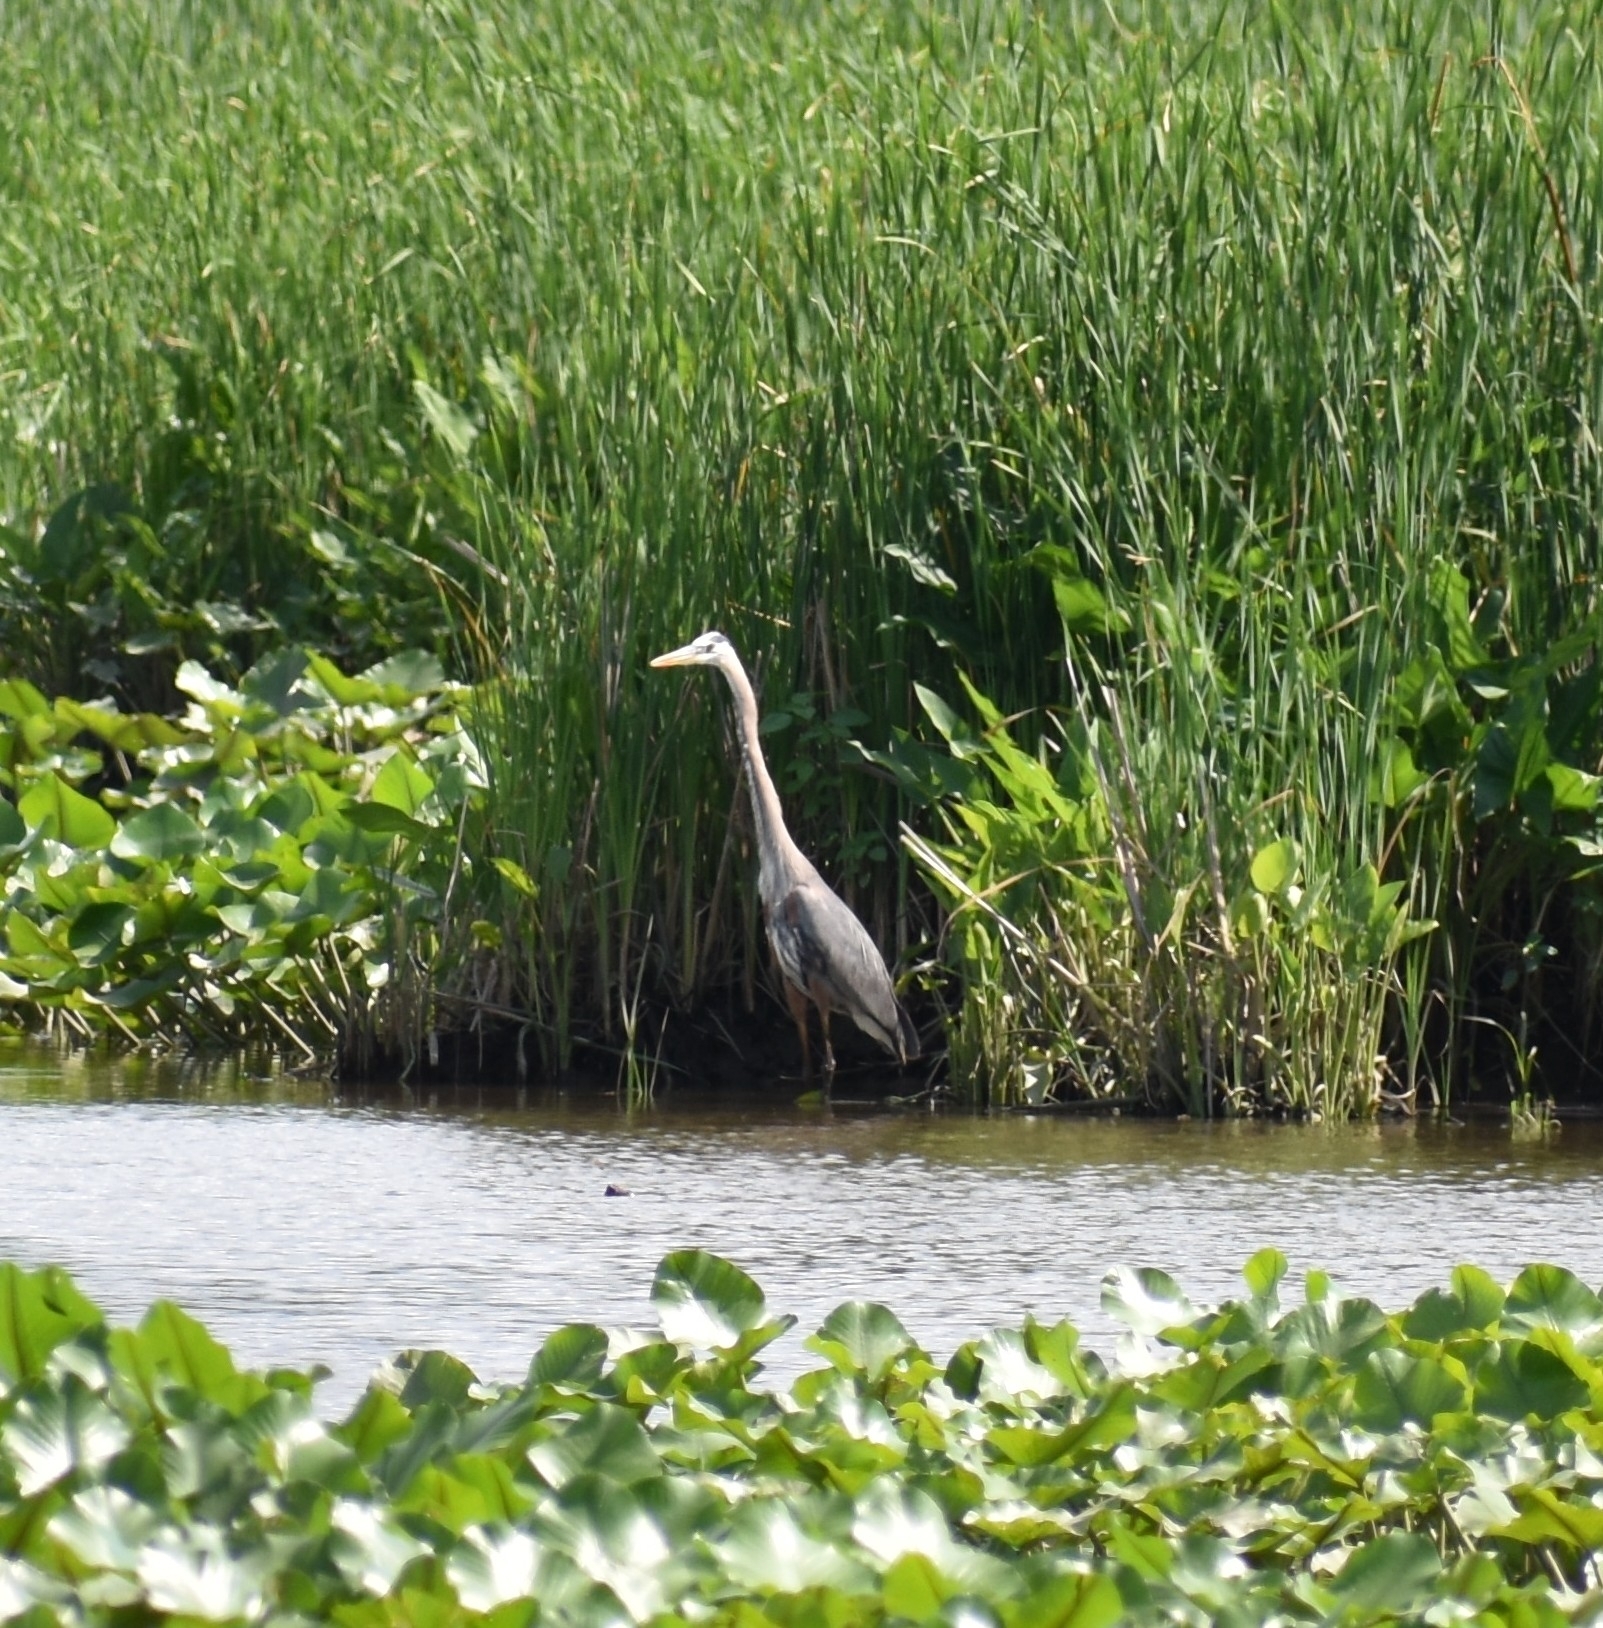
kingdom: Animalia
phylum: Chordata
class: Aves
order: Pelecaniformes
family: Ardeidae
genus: Ardea
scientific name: Ardea herodias
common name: Great blue heron
